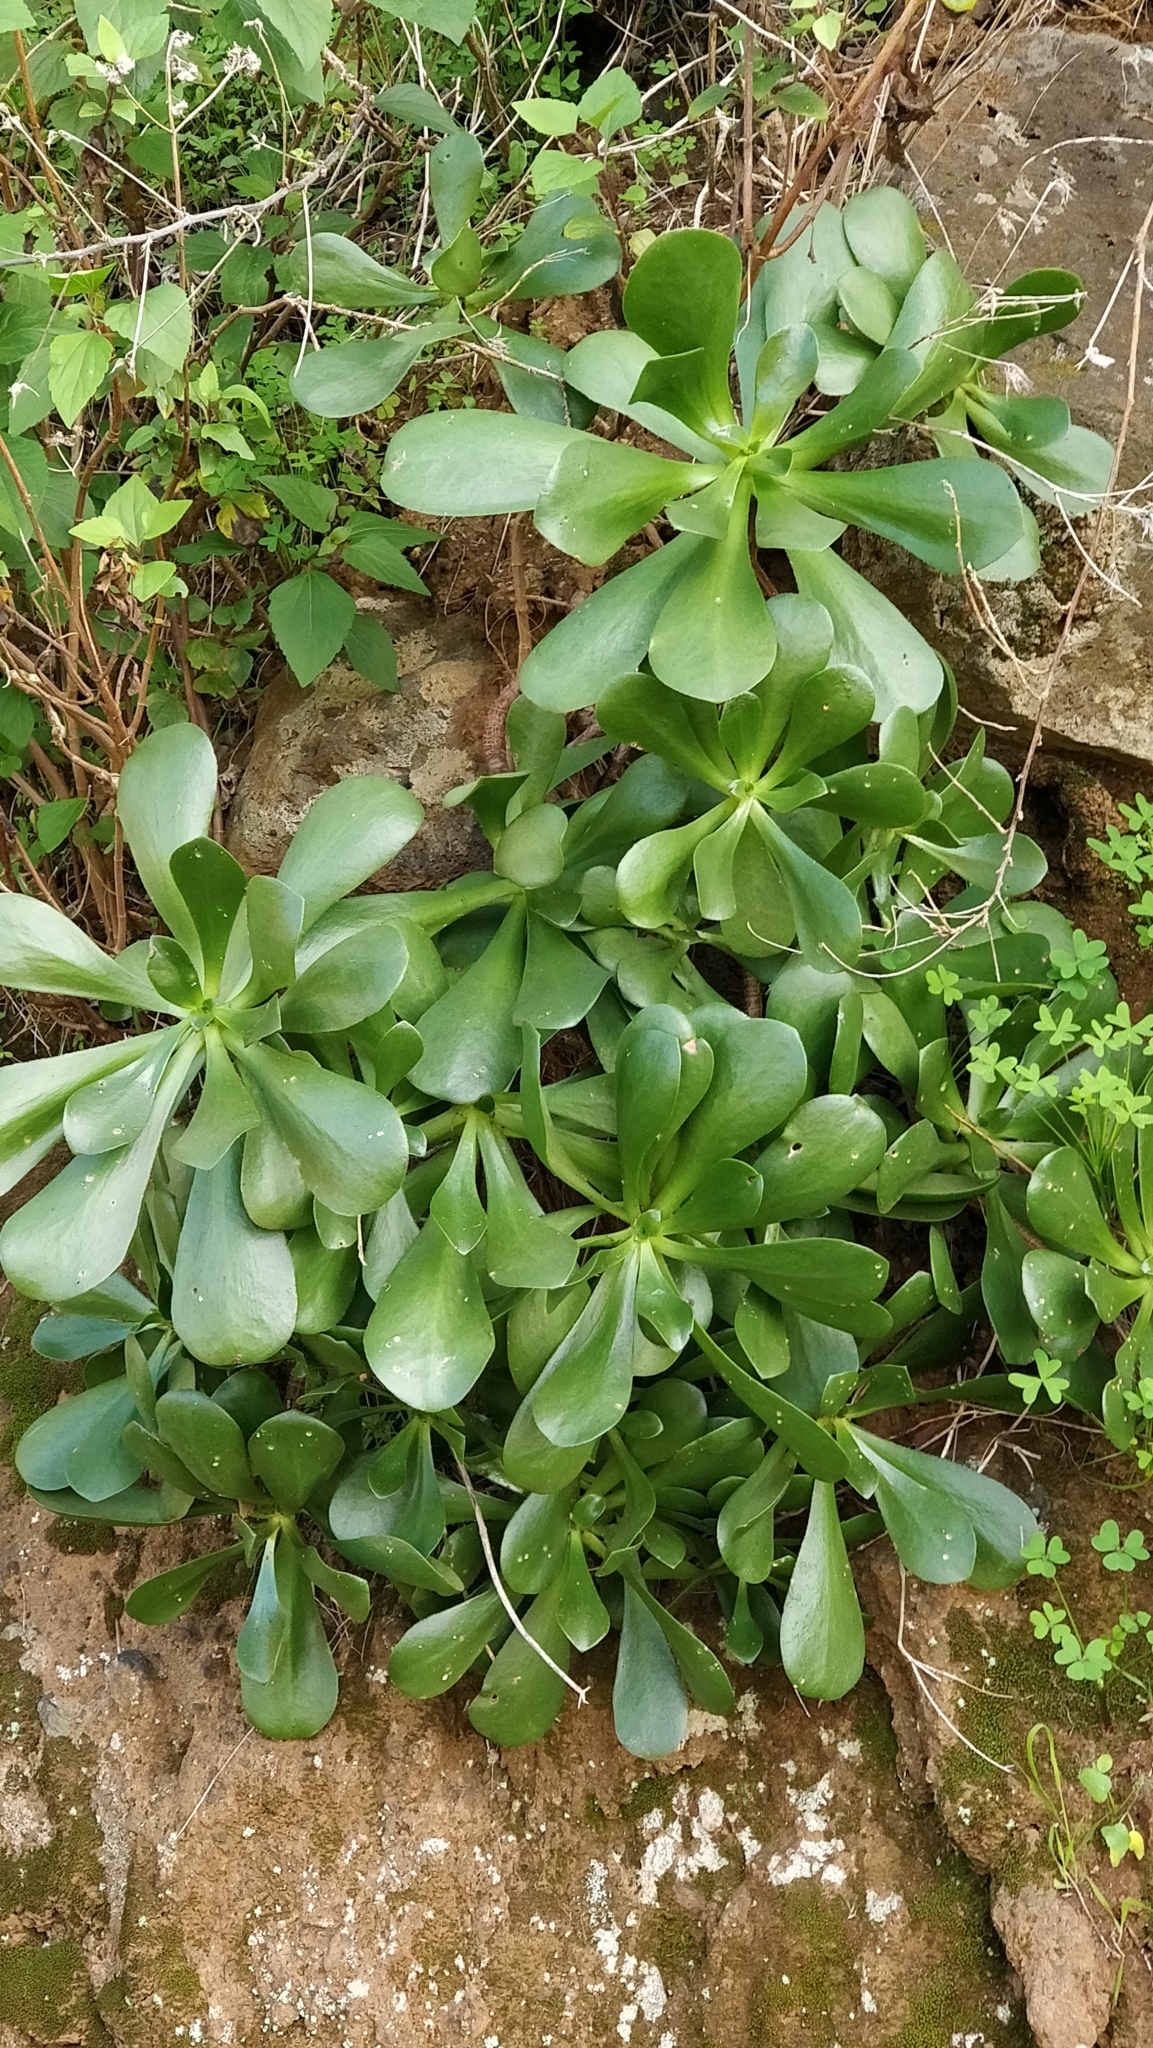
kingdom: Plantae
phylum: Tracheophyta
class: Magnoliopsida
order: Saxifragales
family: Crassulaceae
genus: Aeonium
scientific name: Aeonium glutinosum
